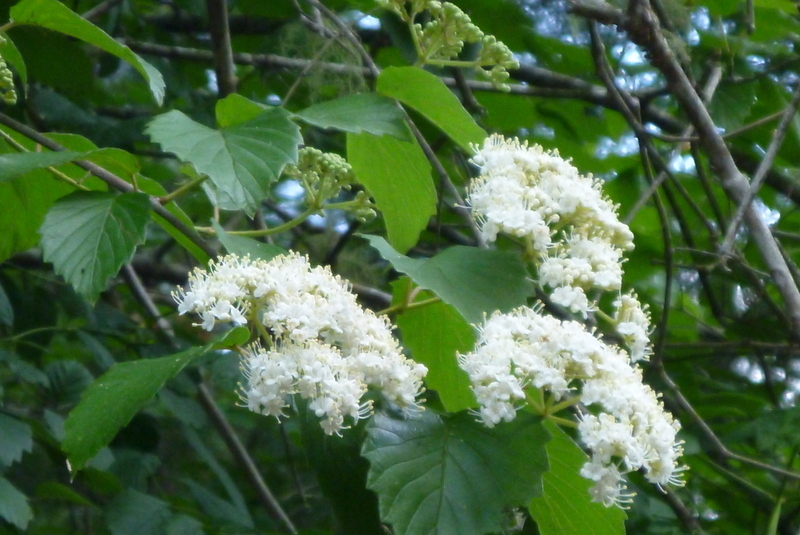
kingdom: Plantae
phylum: Tracheophyta
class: Magnoliopsida
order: Dipsacales
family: Viburnaceae
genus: Viburnum
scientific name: Viburnum scabrellum
